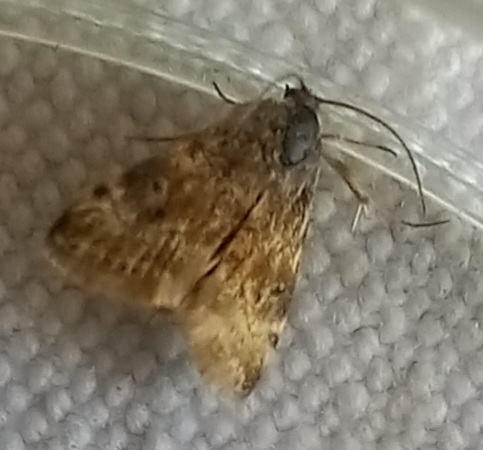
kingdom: Animalia
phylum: Arthropoda
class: Insecta
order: Lepidoptera
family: Crambidae
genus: Noctuelia
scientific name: Noctuelia Aporodes floralis
